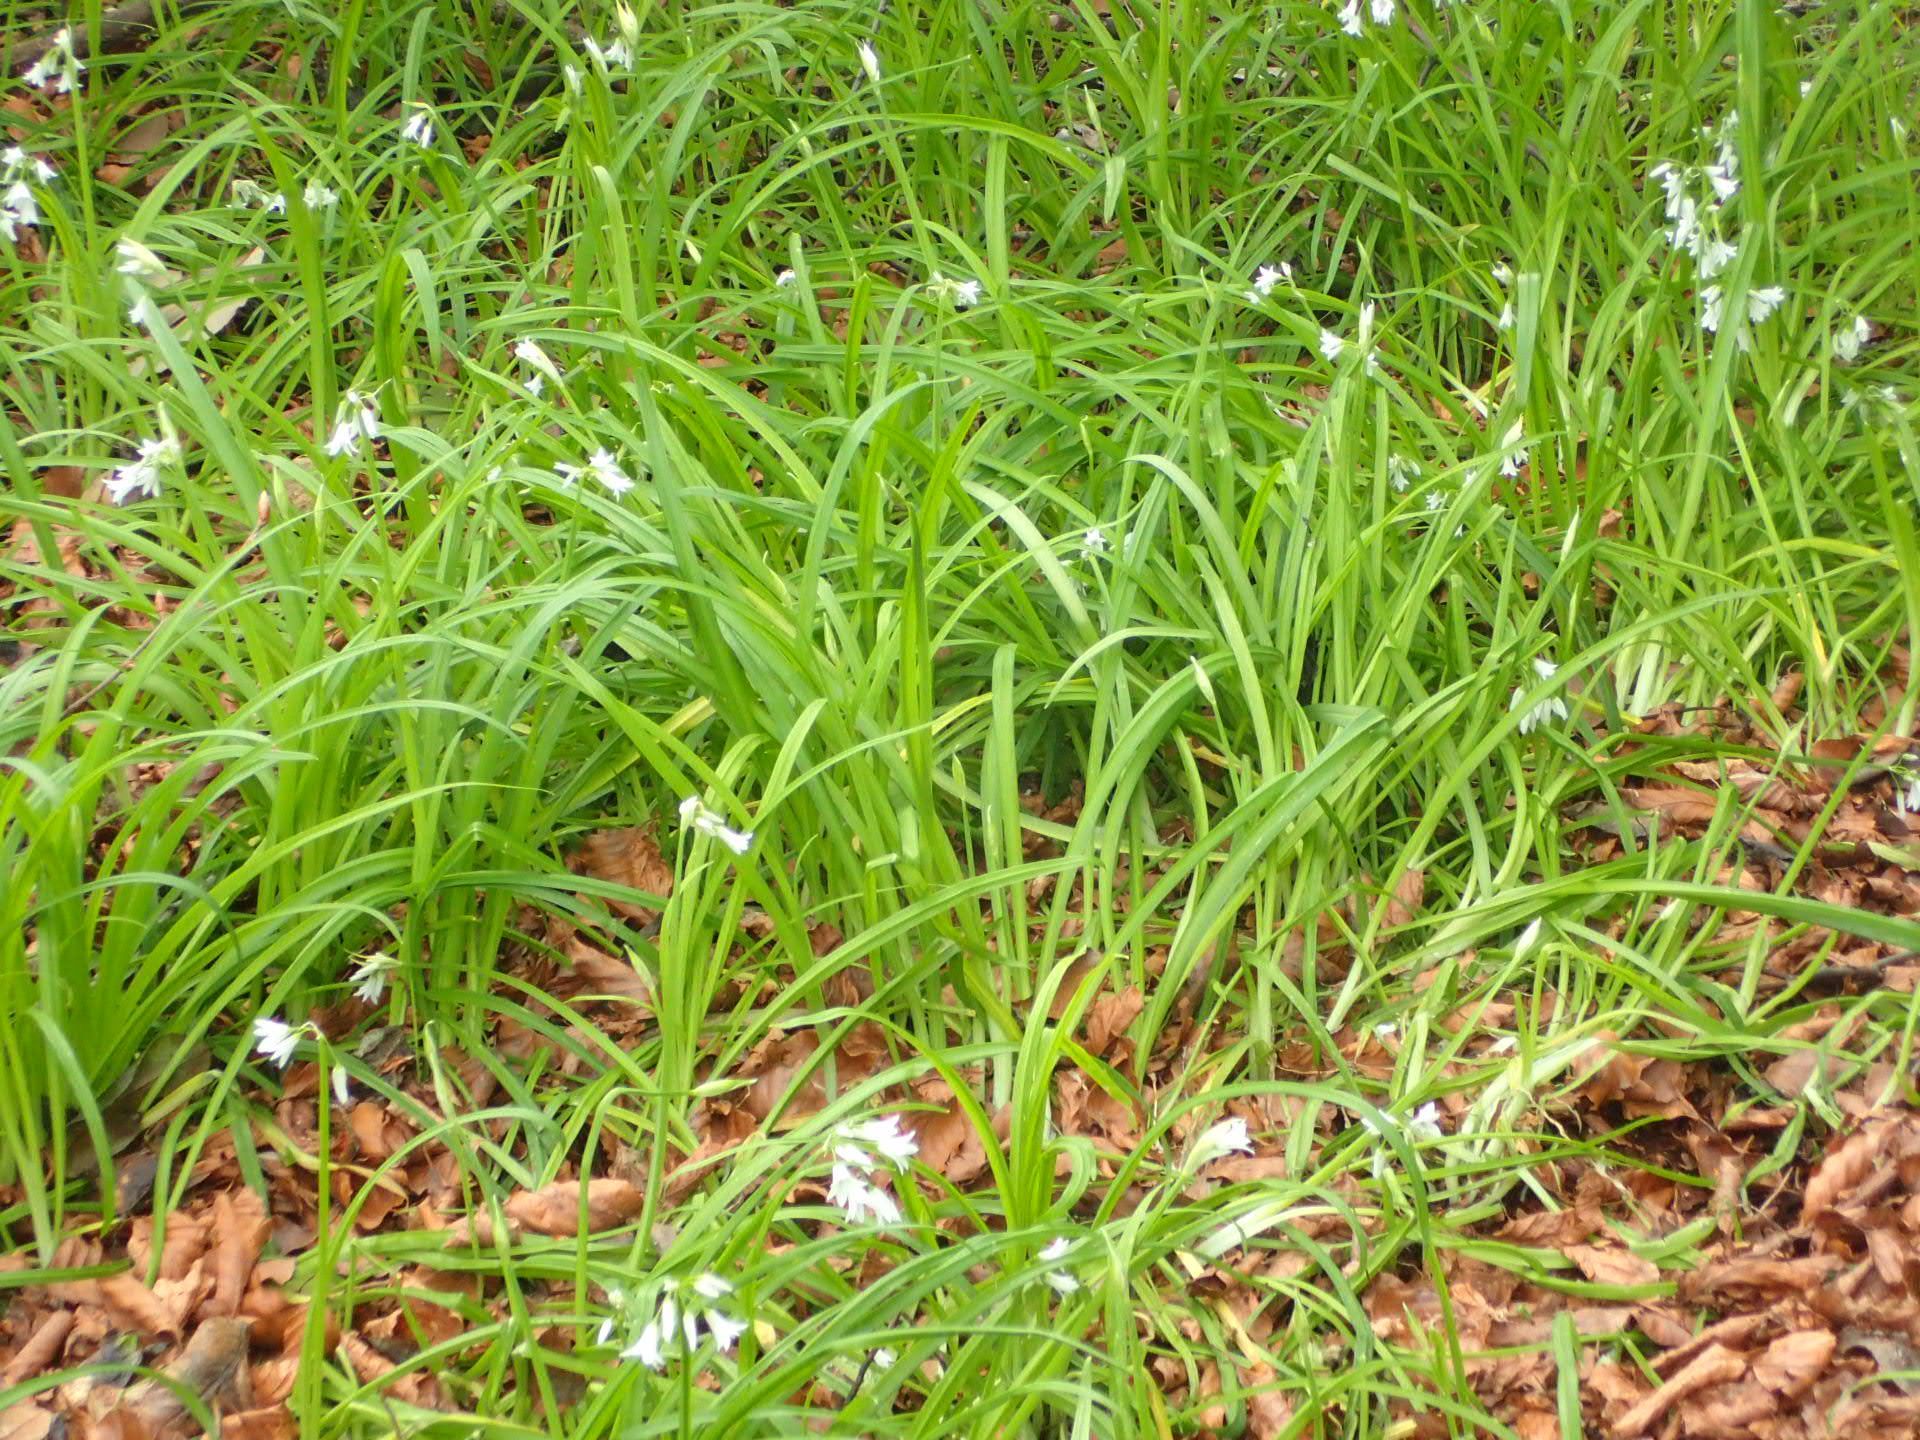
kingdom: Plantae
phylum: Tracheophyta
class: Liliopsida
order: Asparagales
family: Amaryllidaceae
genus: Allium
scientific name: Allium triquetrum
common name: Three-cornered garlic
